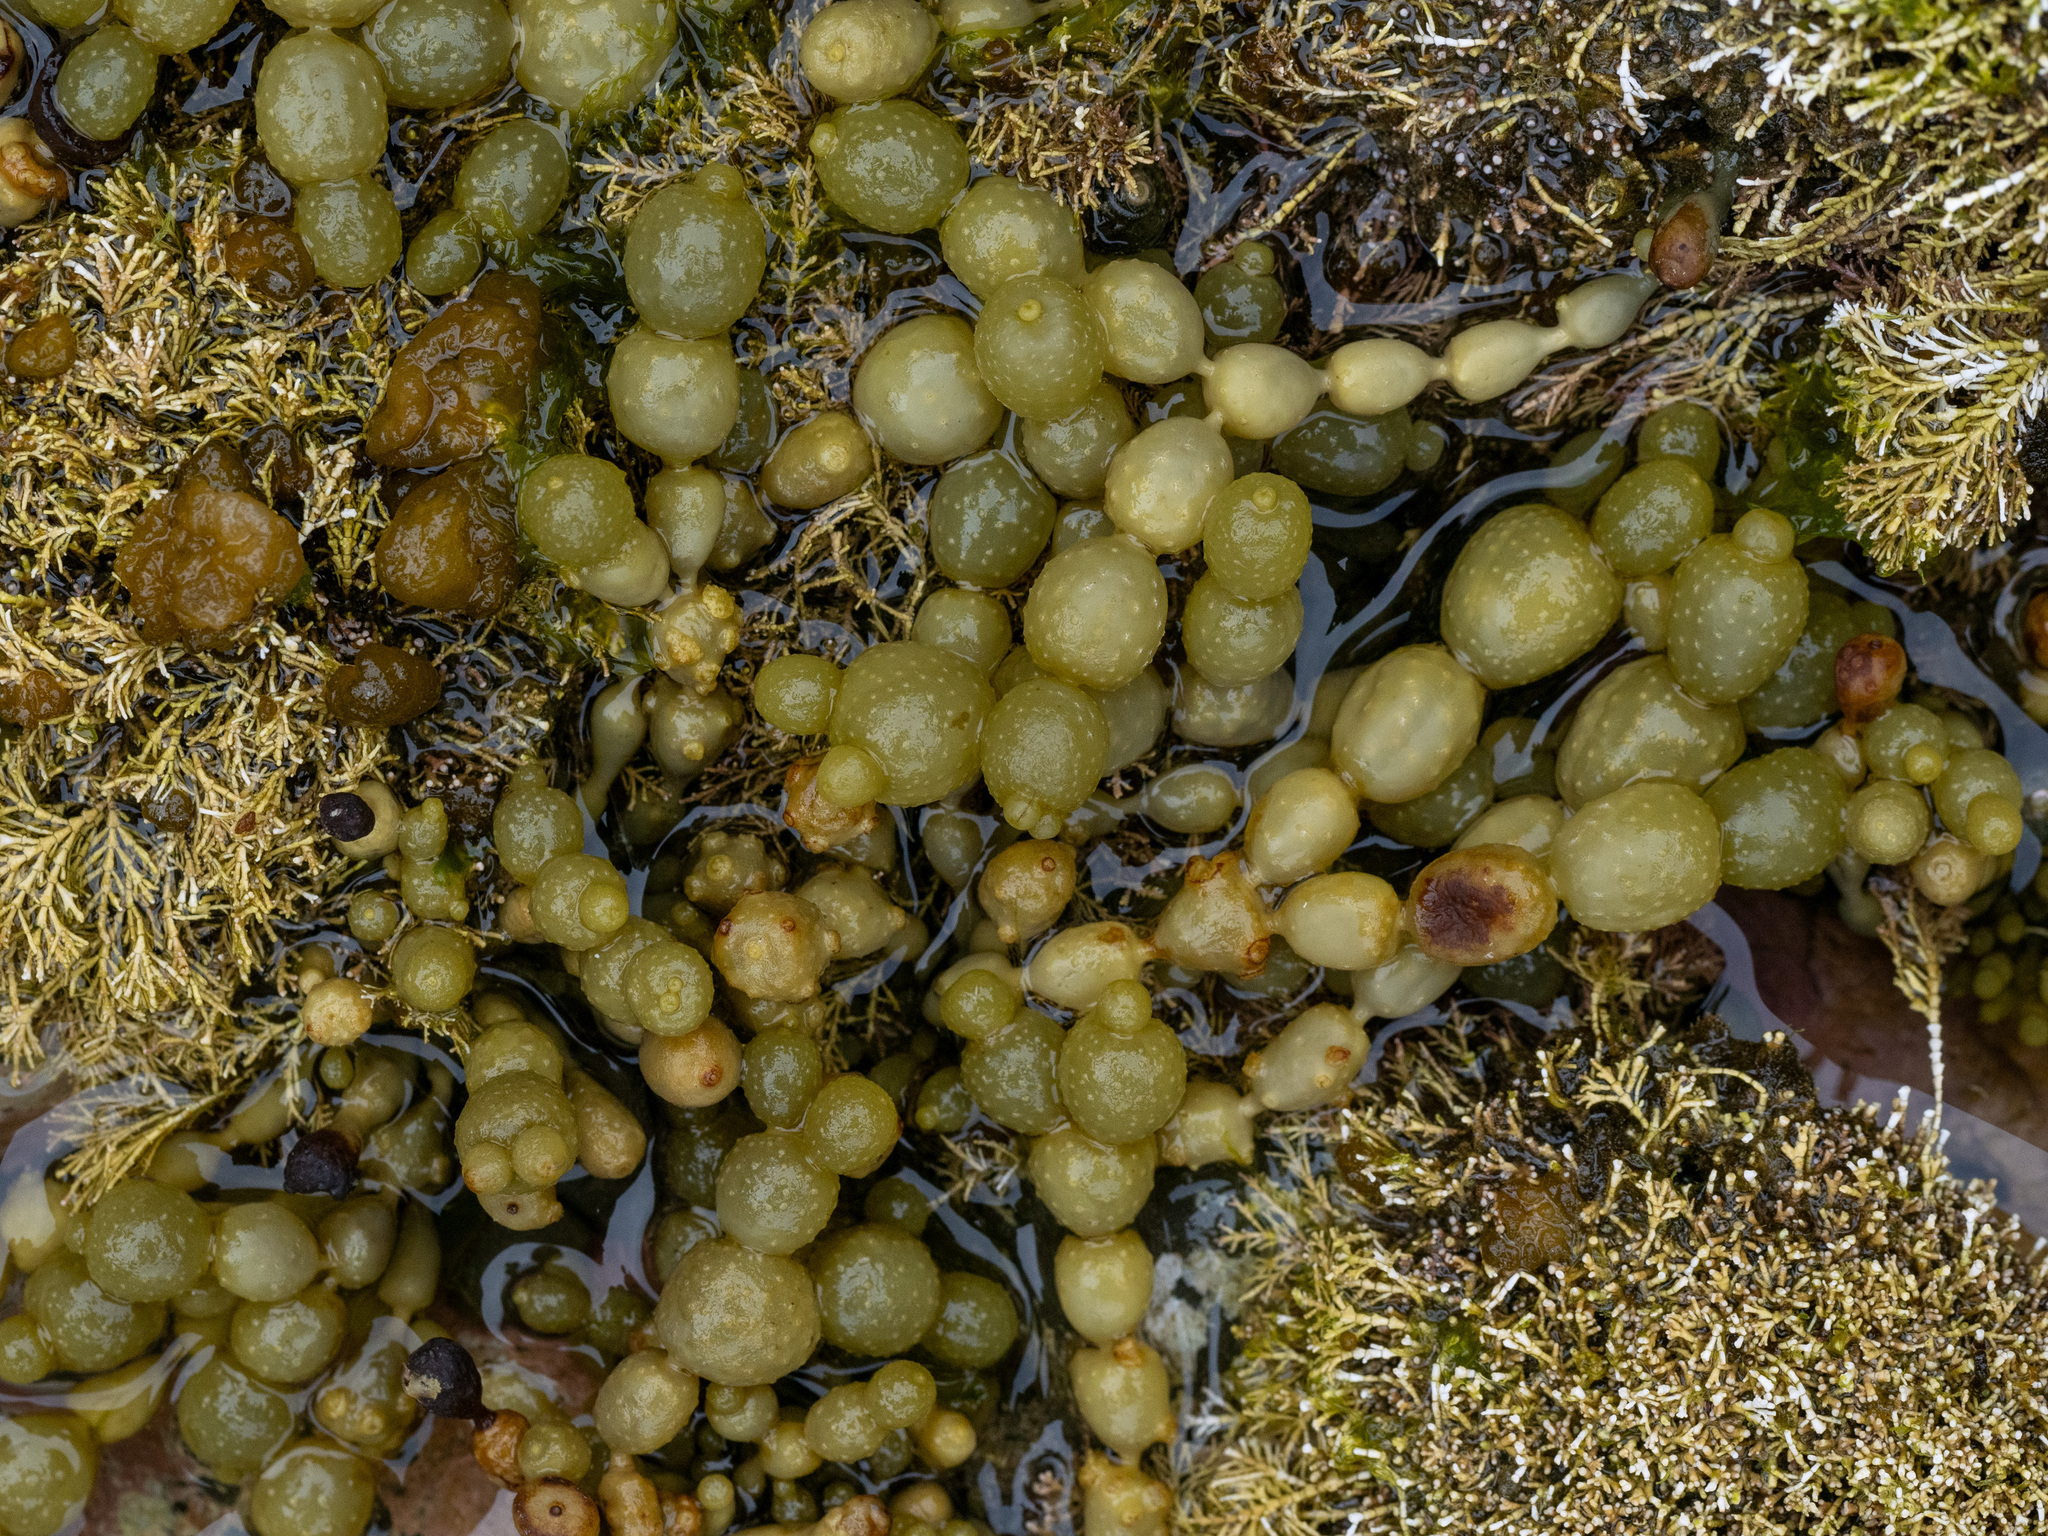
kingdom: Chromista
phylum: Ochrophyta
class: Phaeophyceae
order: Fucales
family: Hormosiraceae
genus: Hormosira
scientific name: Hormosira banksii
